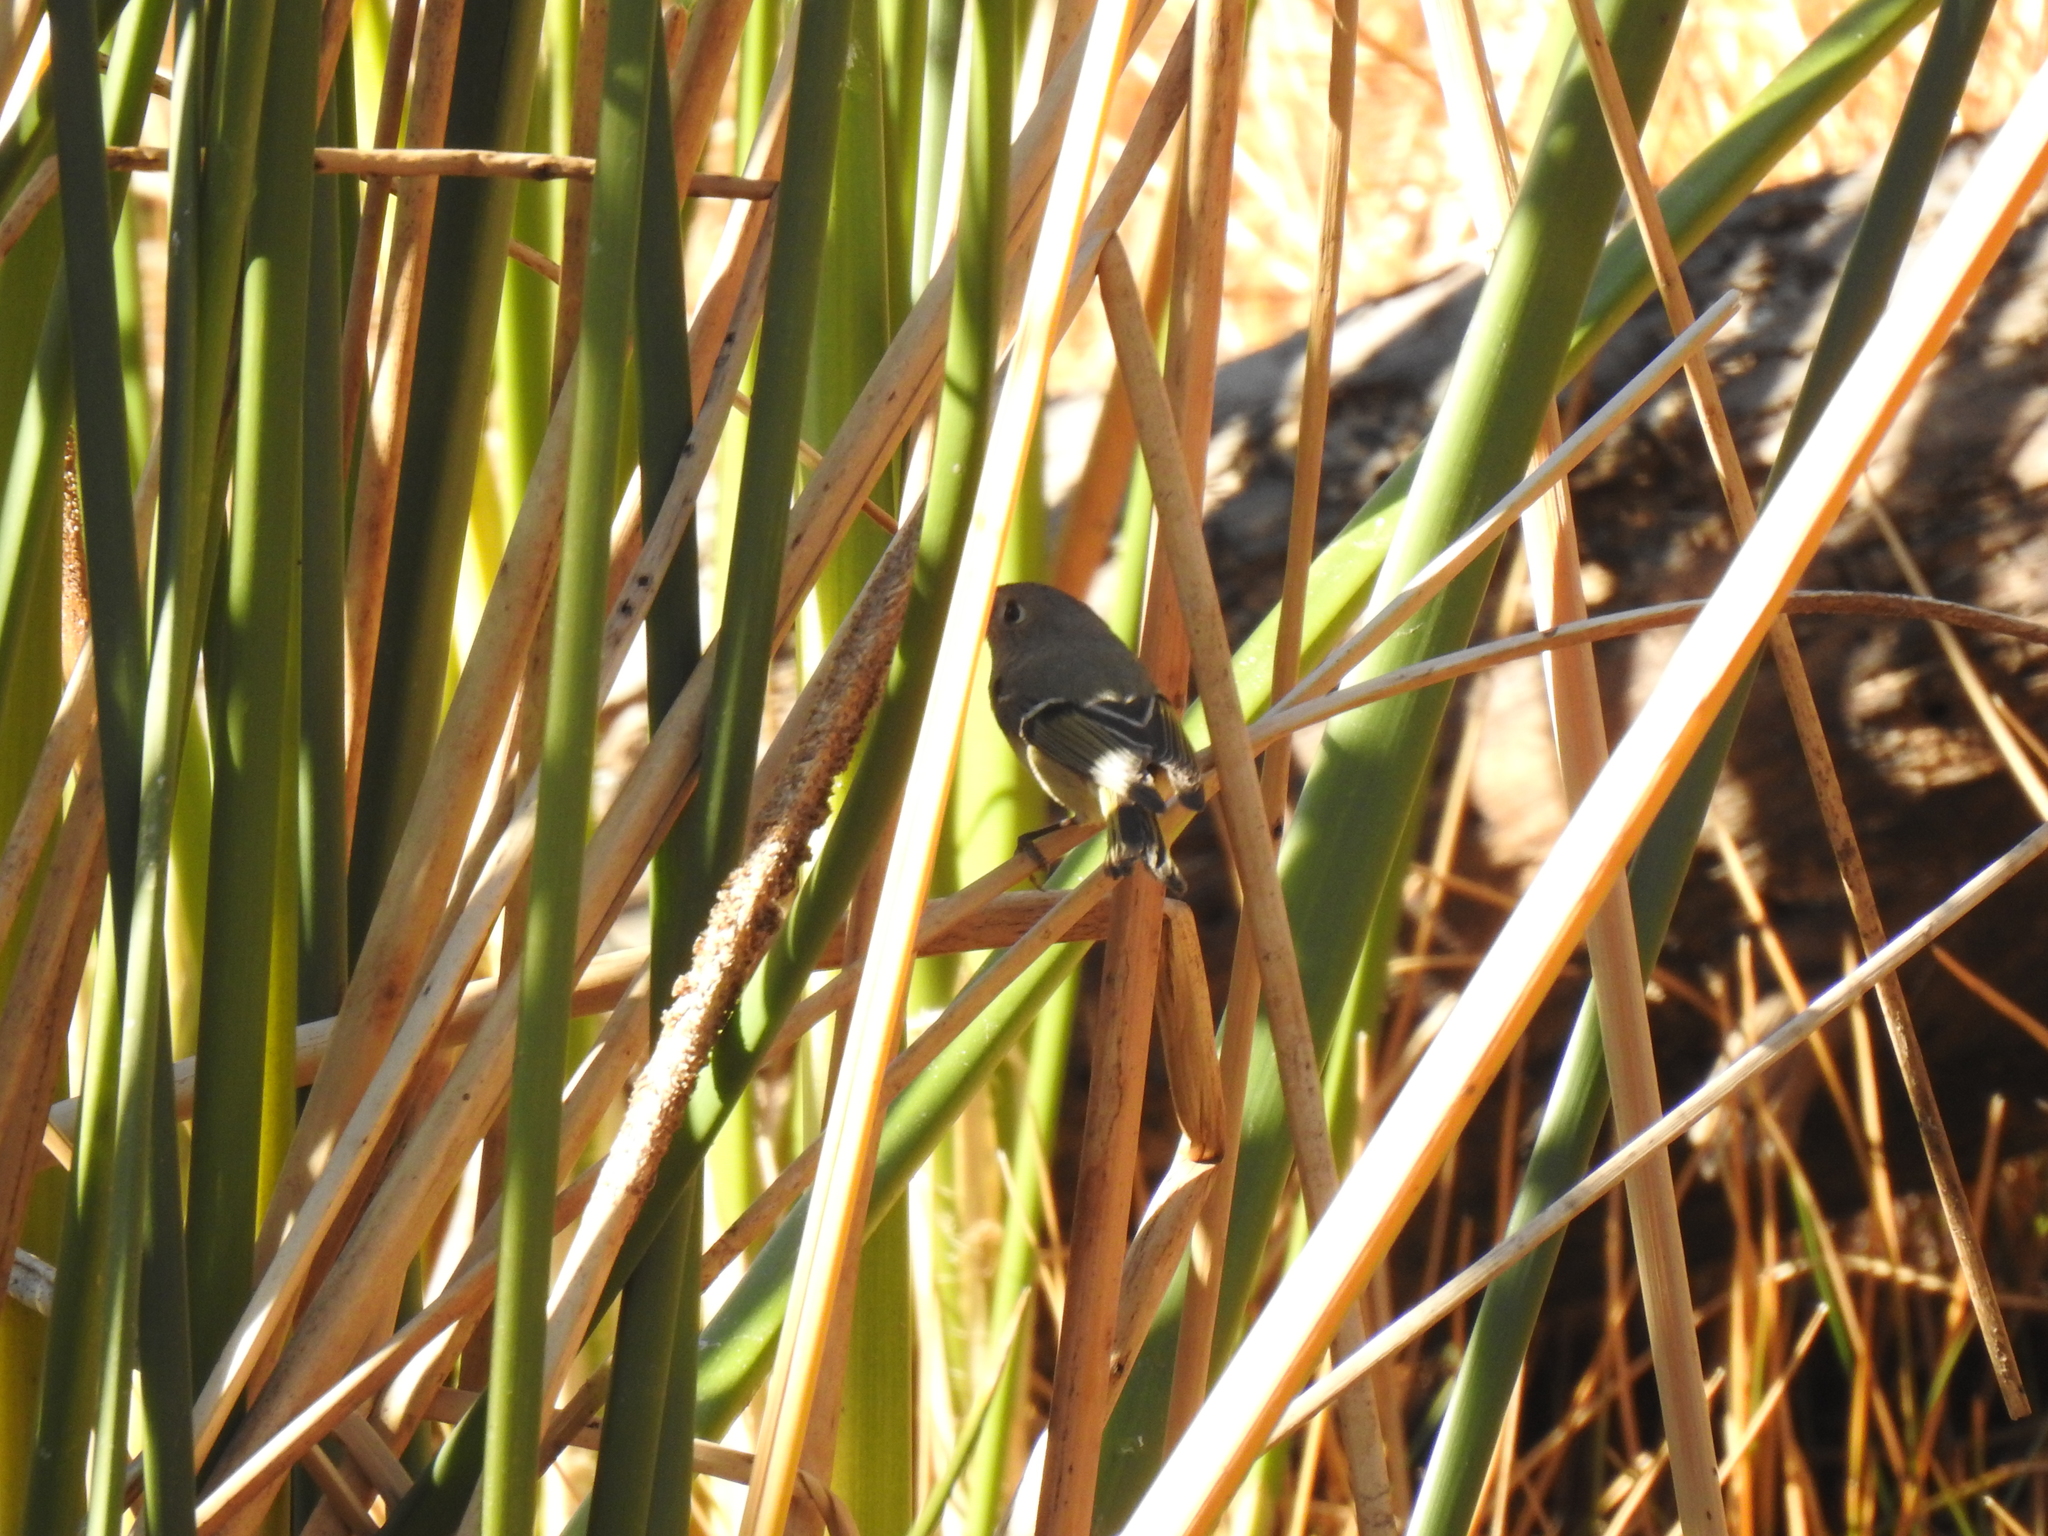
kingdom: Animalia
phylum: Chordata
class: Aves
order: Passeriformes
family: Regulidae
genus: Regulus
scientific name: Regulus calendula
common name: Ruby-crowned kinglet
